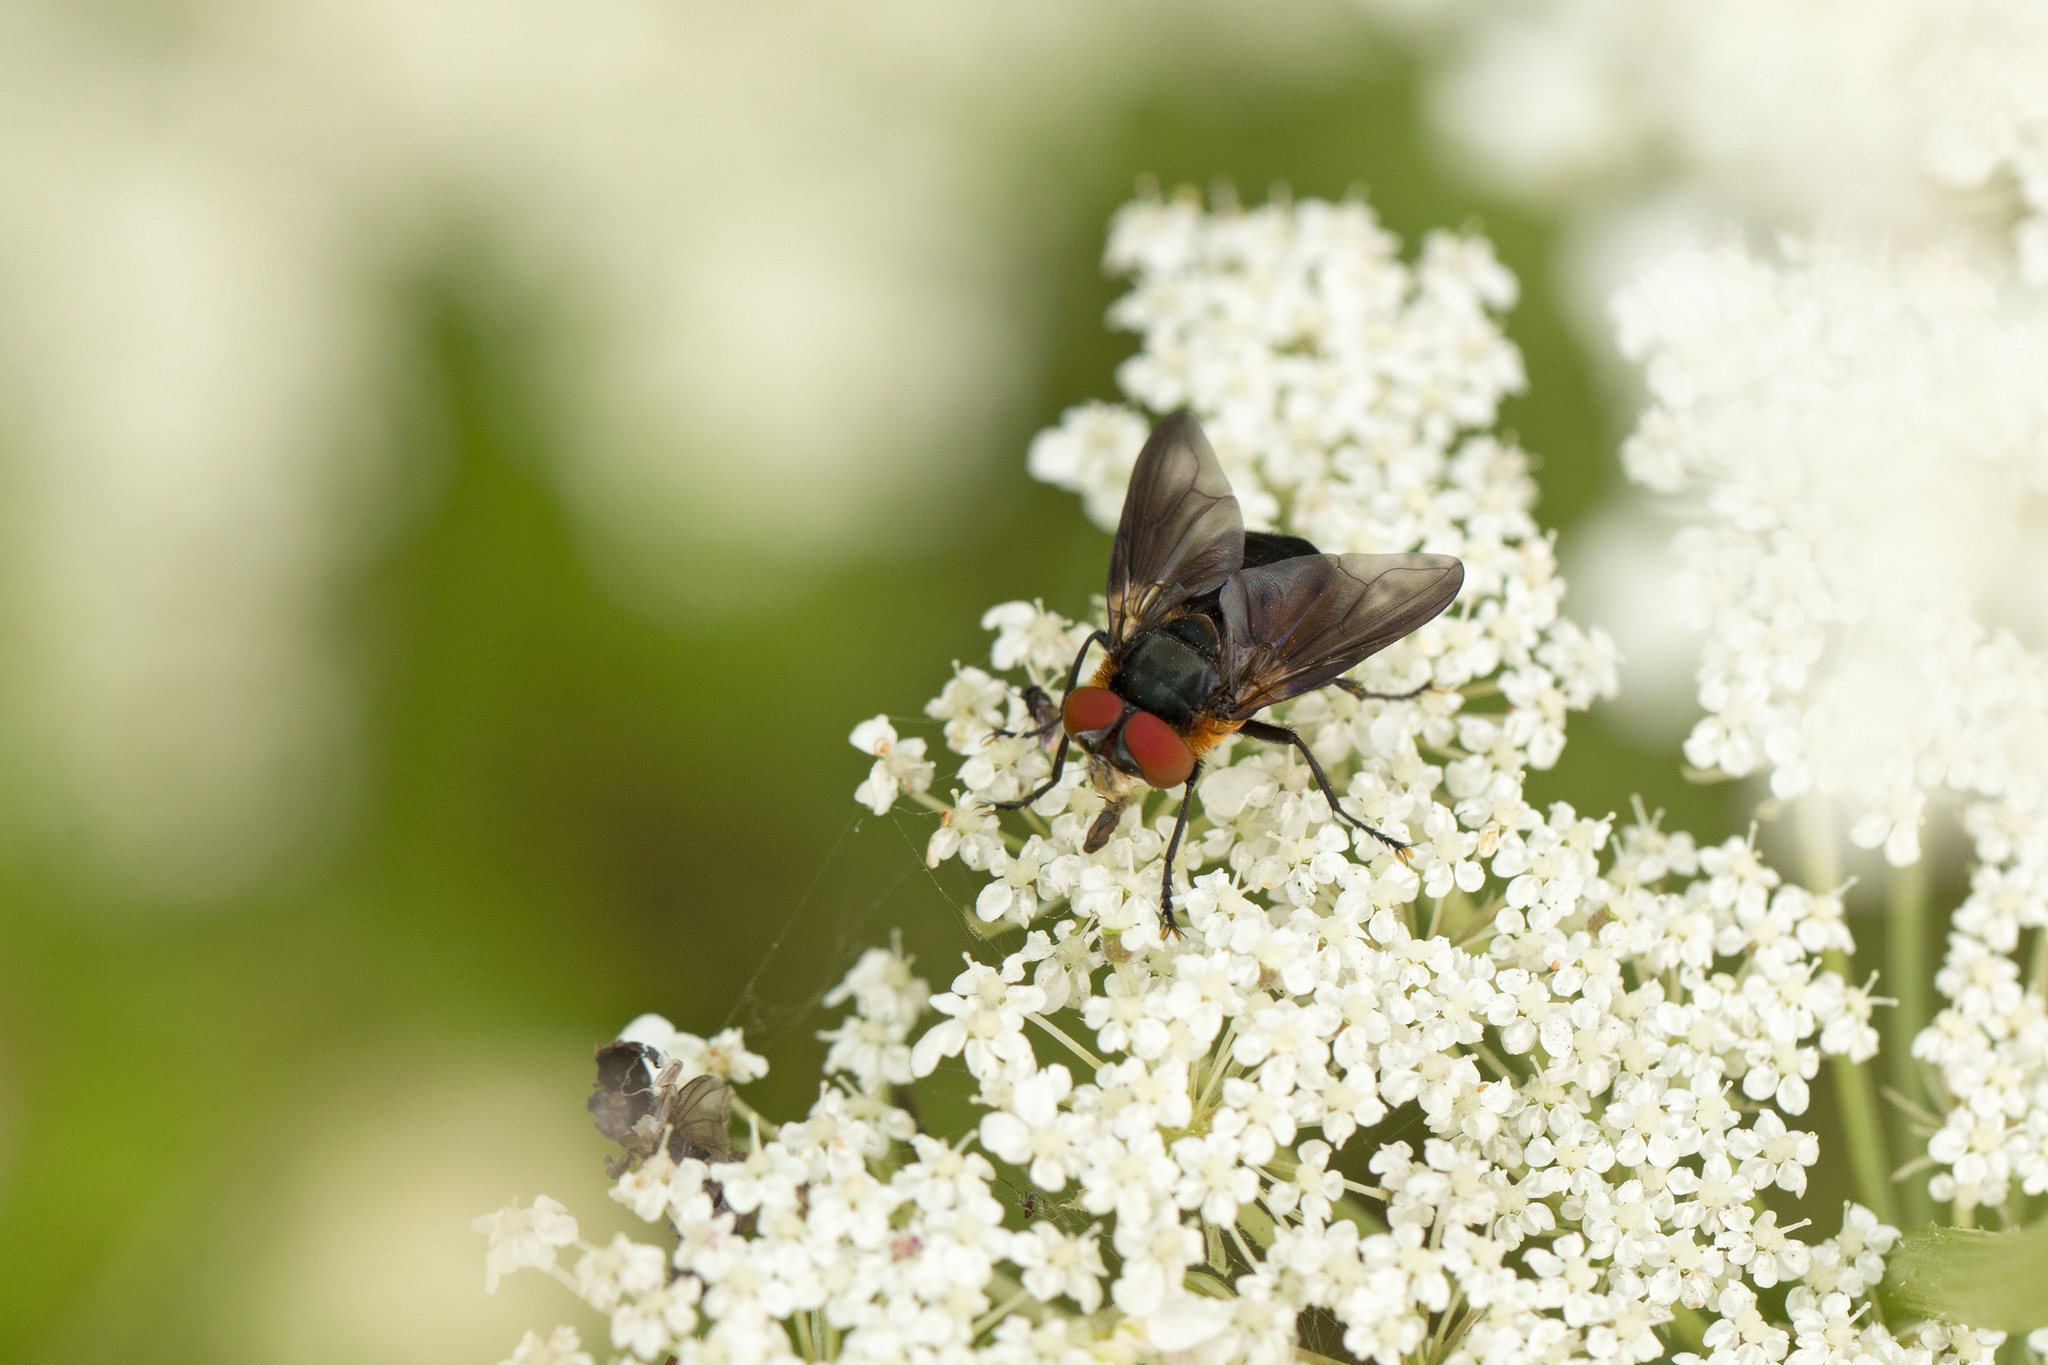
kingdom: Animalia
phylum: Arthropoda
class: Insecta
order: Diptera
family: Tachinidae
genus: Phasia
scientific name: Phasia hemiptera
